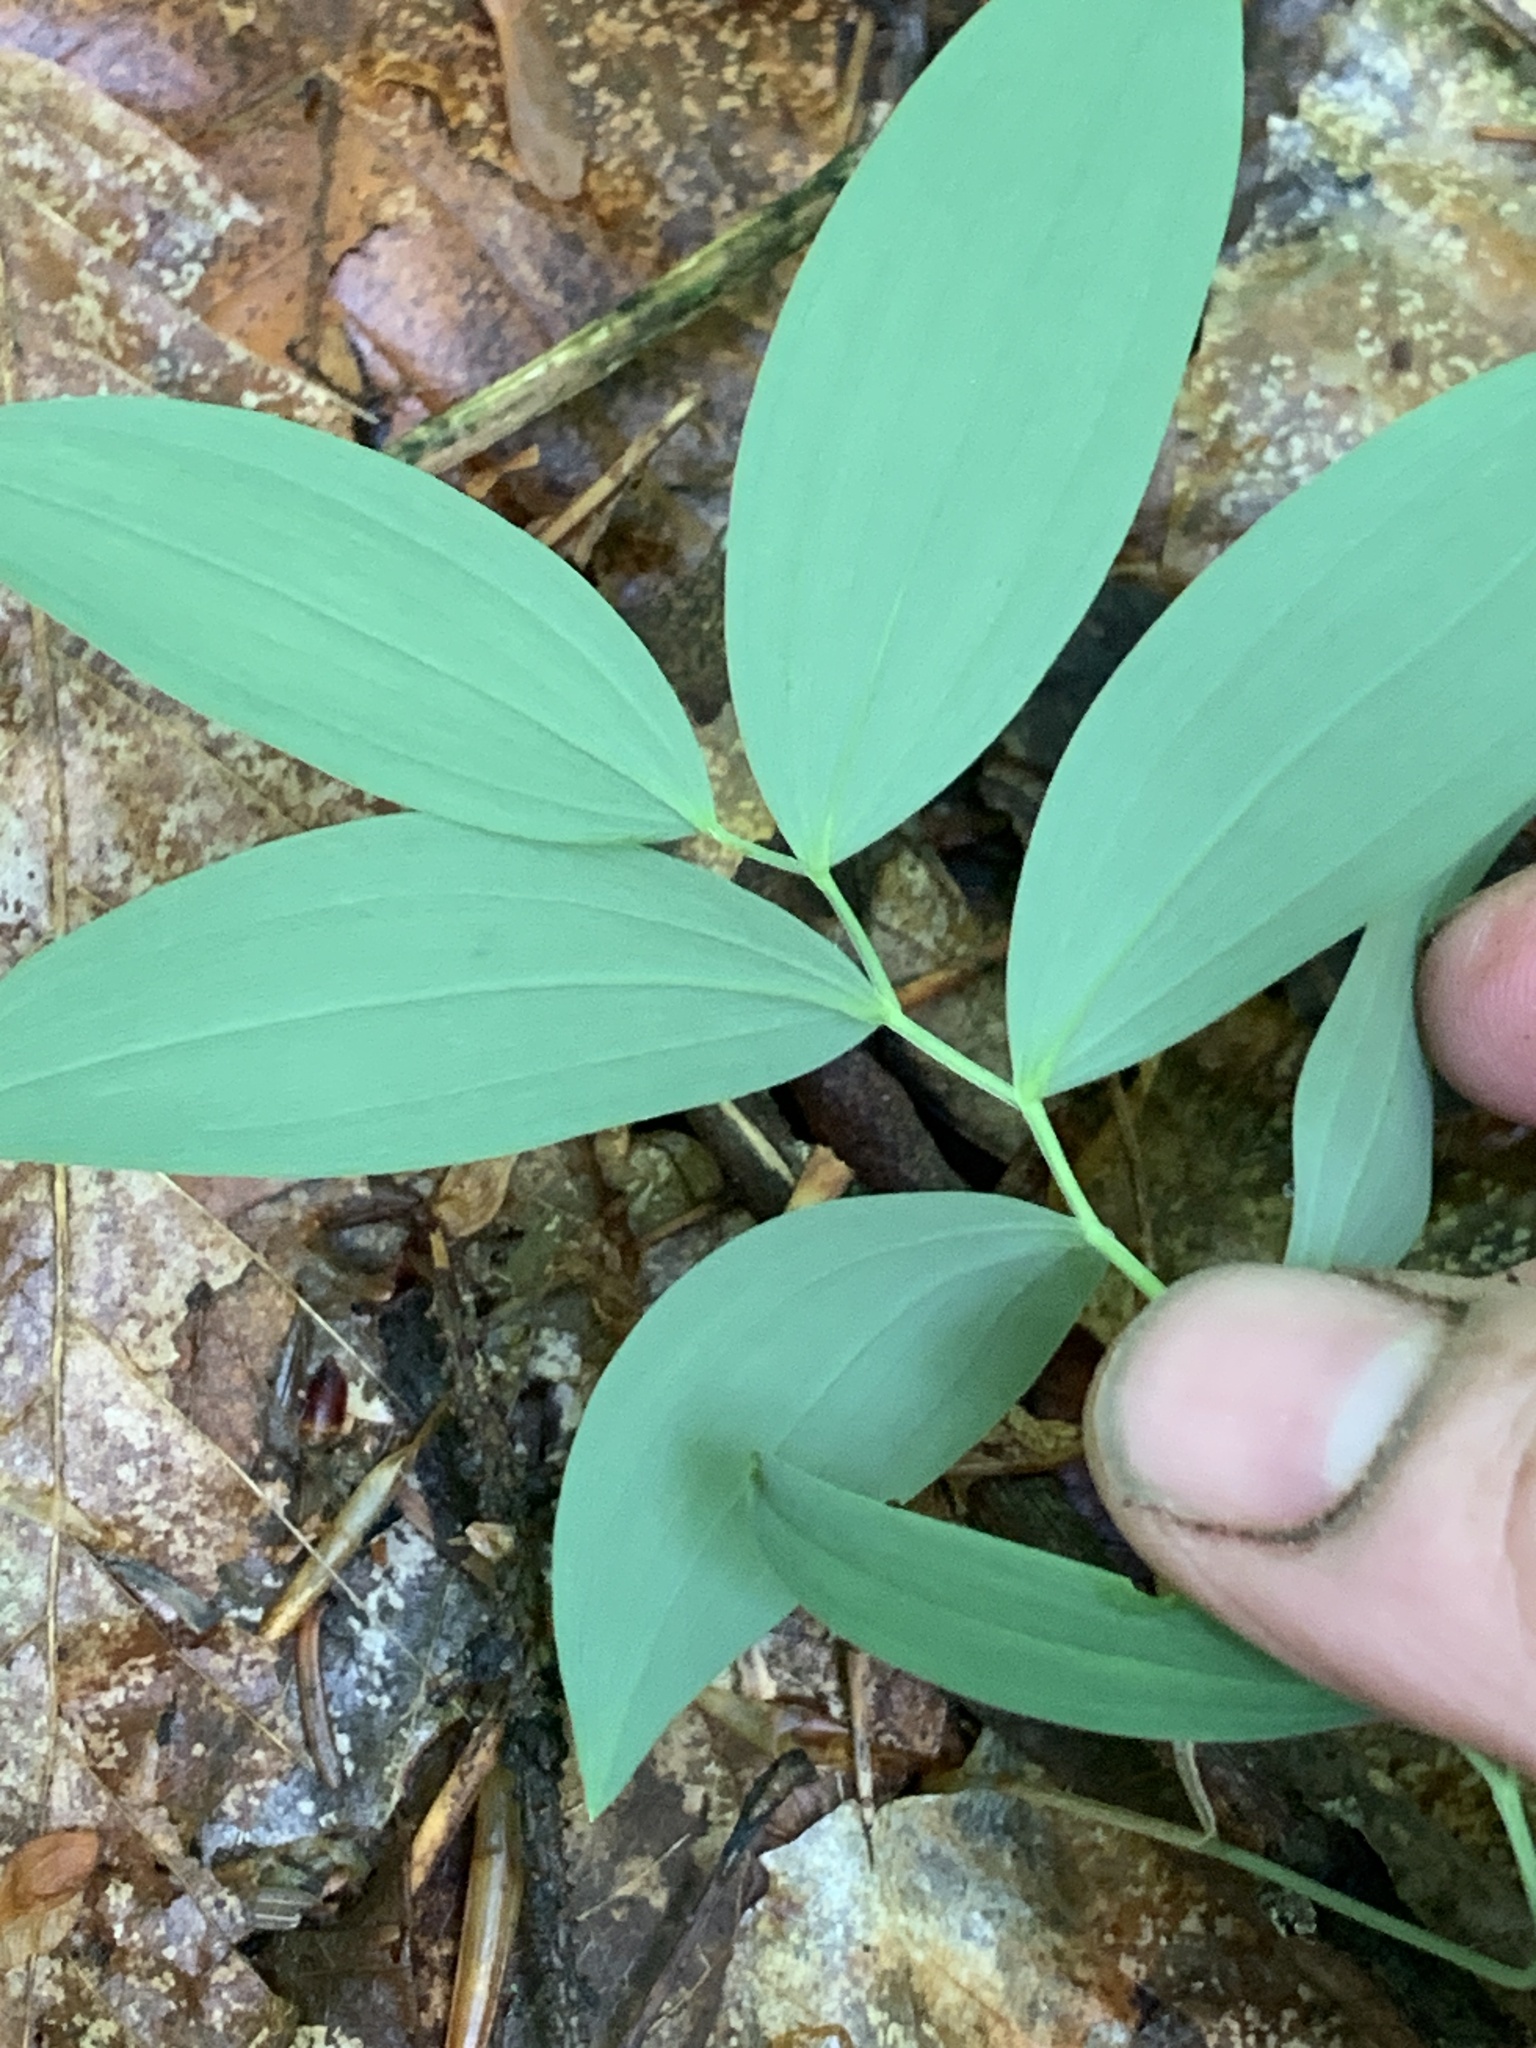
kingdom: Plantae
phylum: Tracheophyta
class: Liliopsida
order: Liliales
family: Colchicaceae
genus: Uvularia
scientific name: Uvularia sessilifolia
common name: Straw-lily
